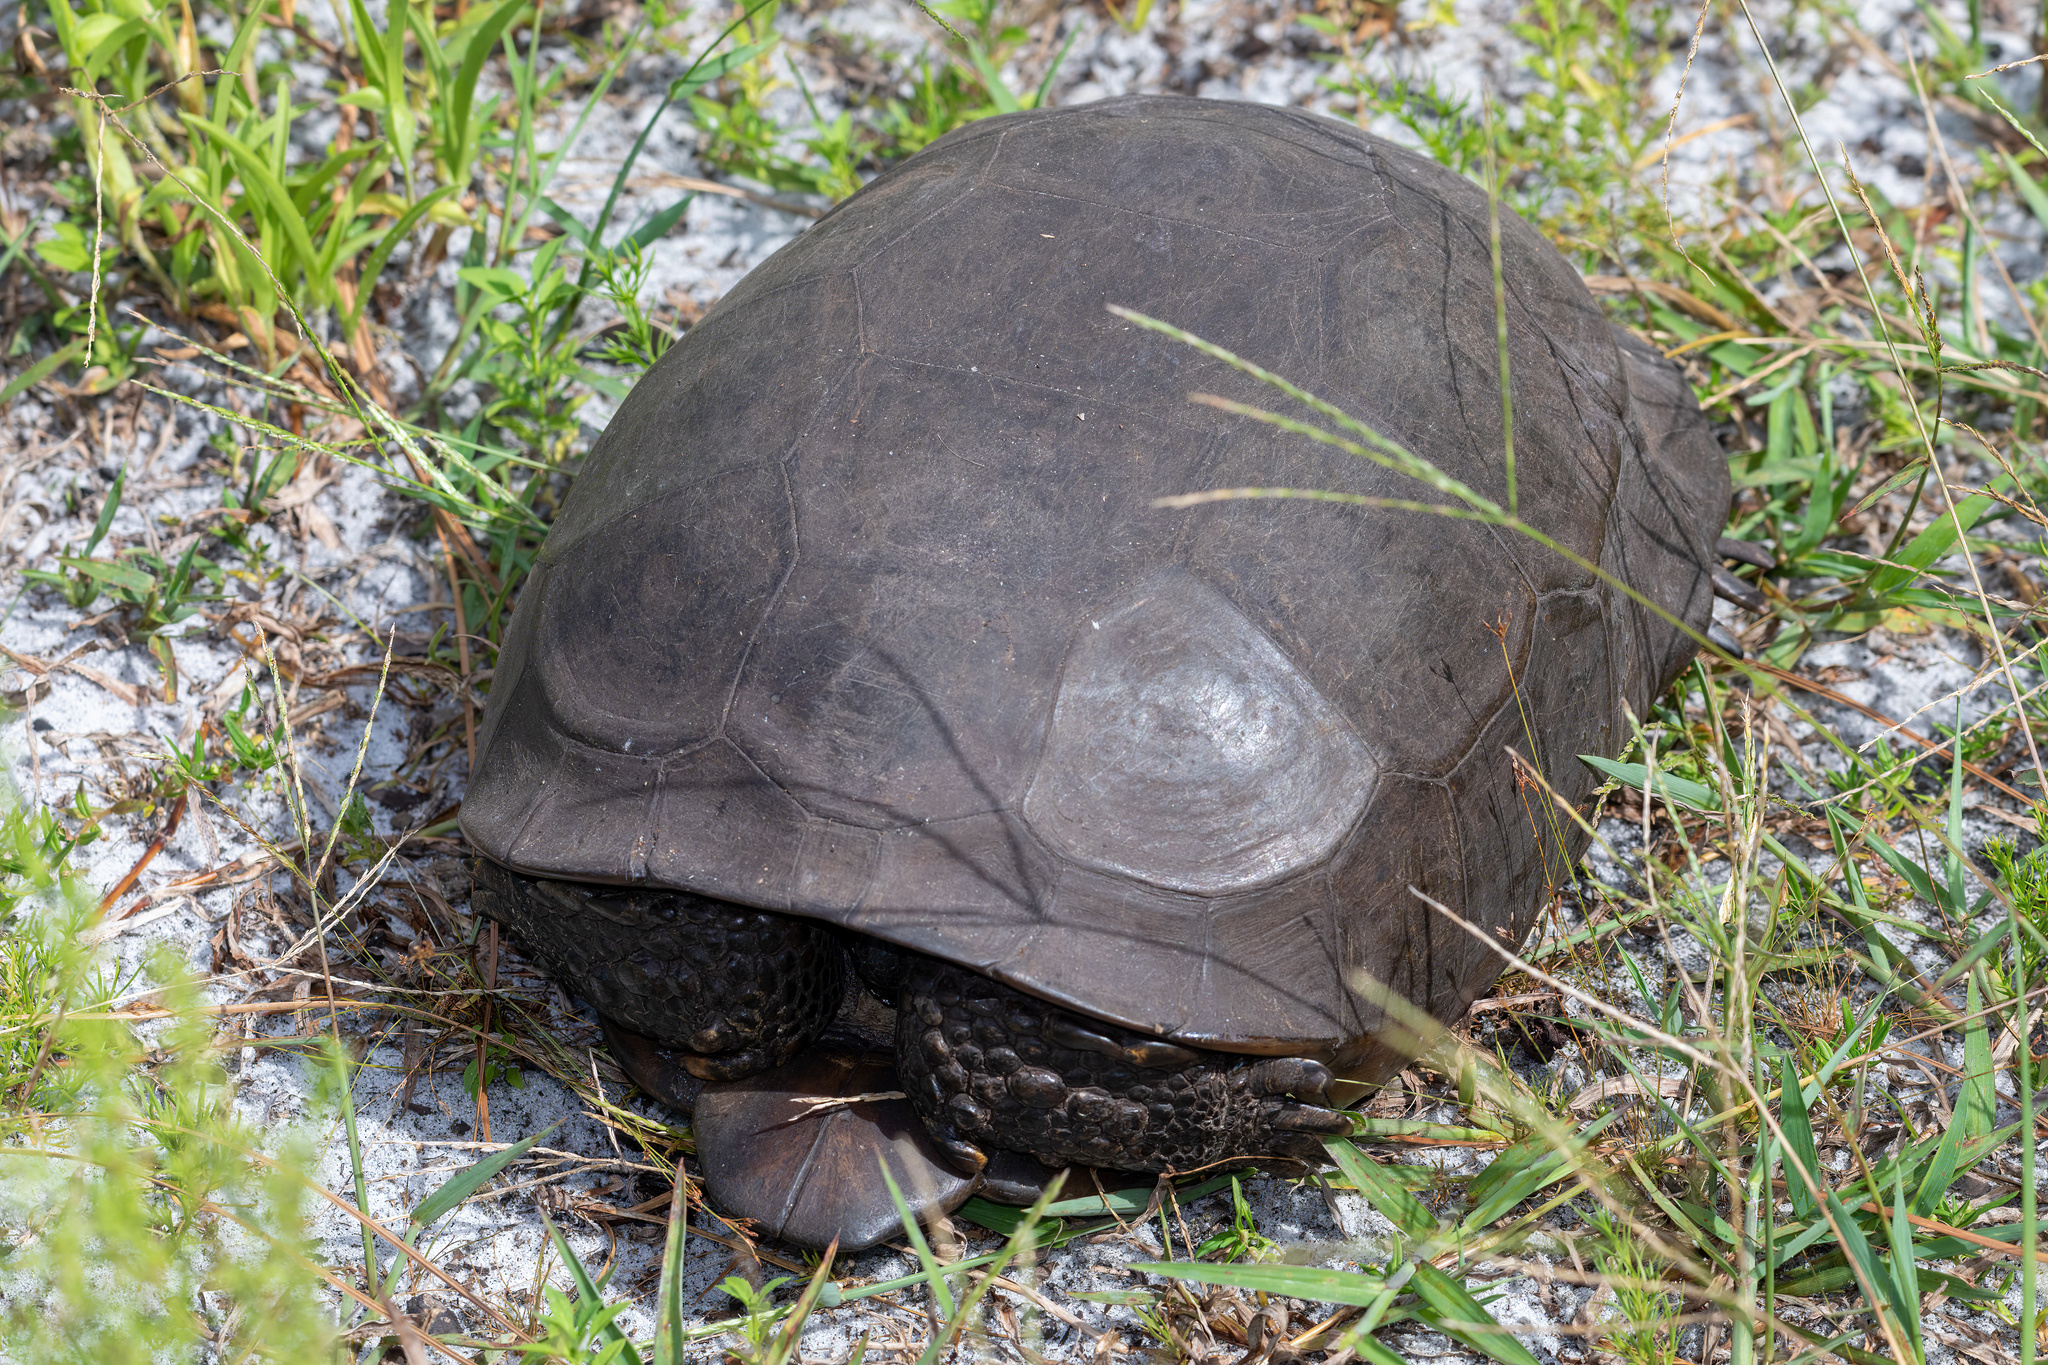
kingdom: Animalia
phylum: Chordata
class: Testudines
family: Testudinidae
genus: Gopherus
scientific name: Gopherus polyphemus
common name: Florida gopher tortoise
